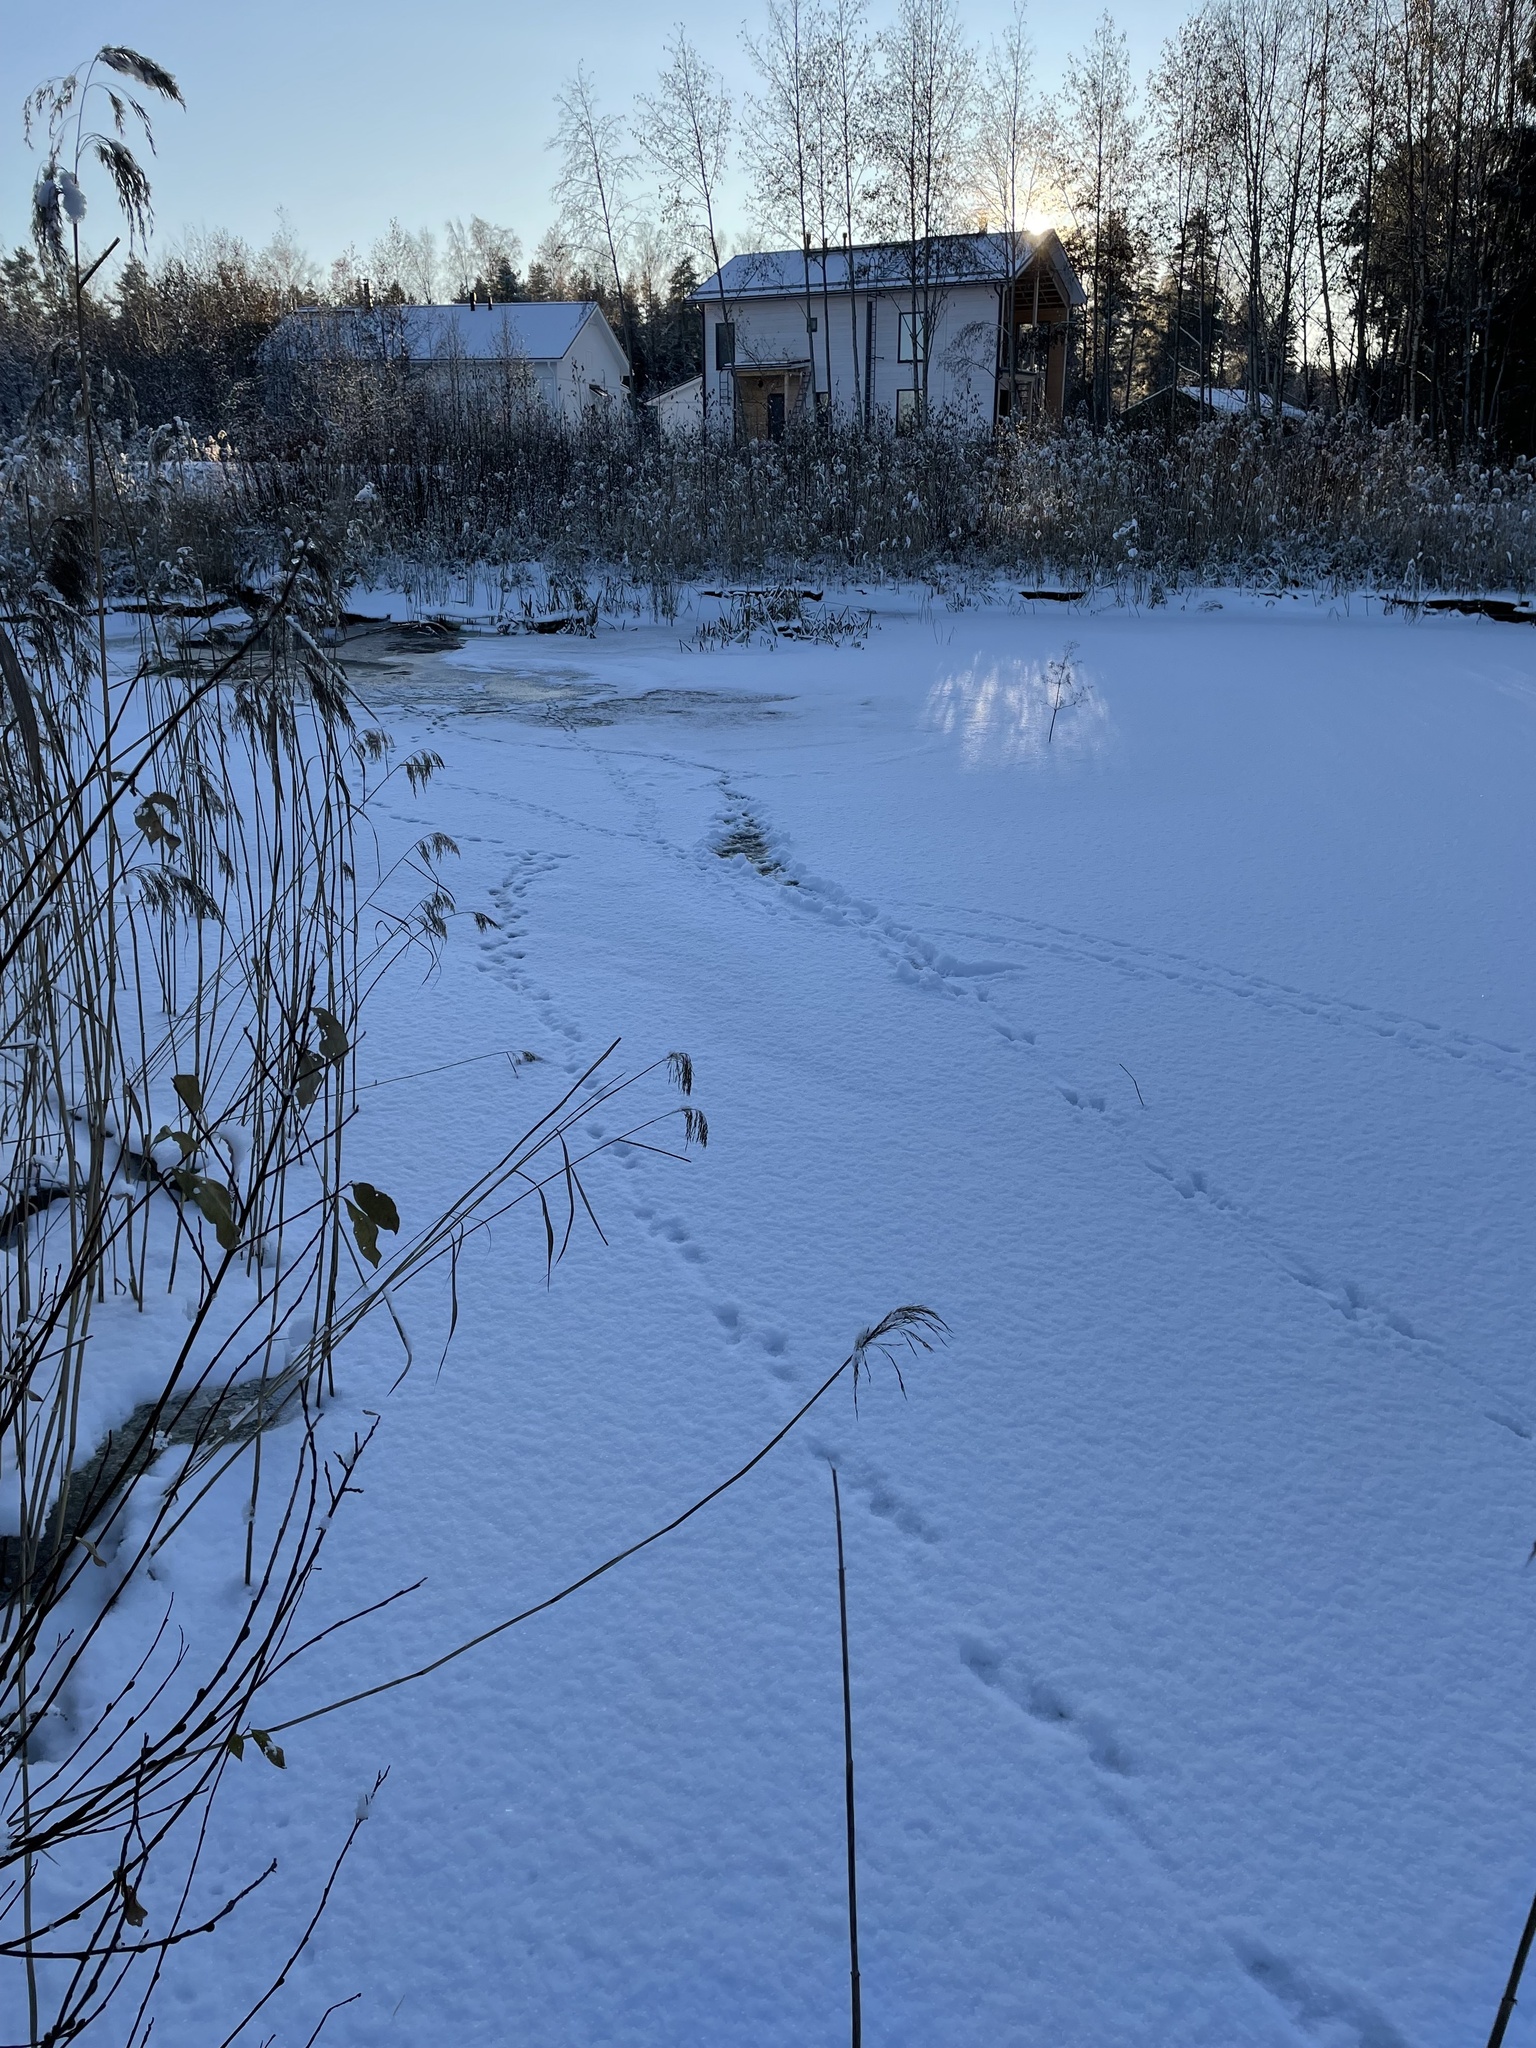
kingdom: Animalia
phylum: Chordata
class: Mammalia
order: Carnivora
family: Mustelidae
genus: Lutra
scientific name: Lutra lutra
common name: European otter
